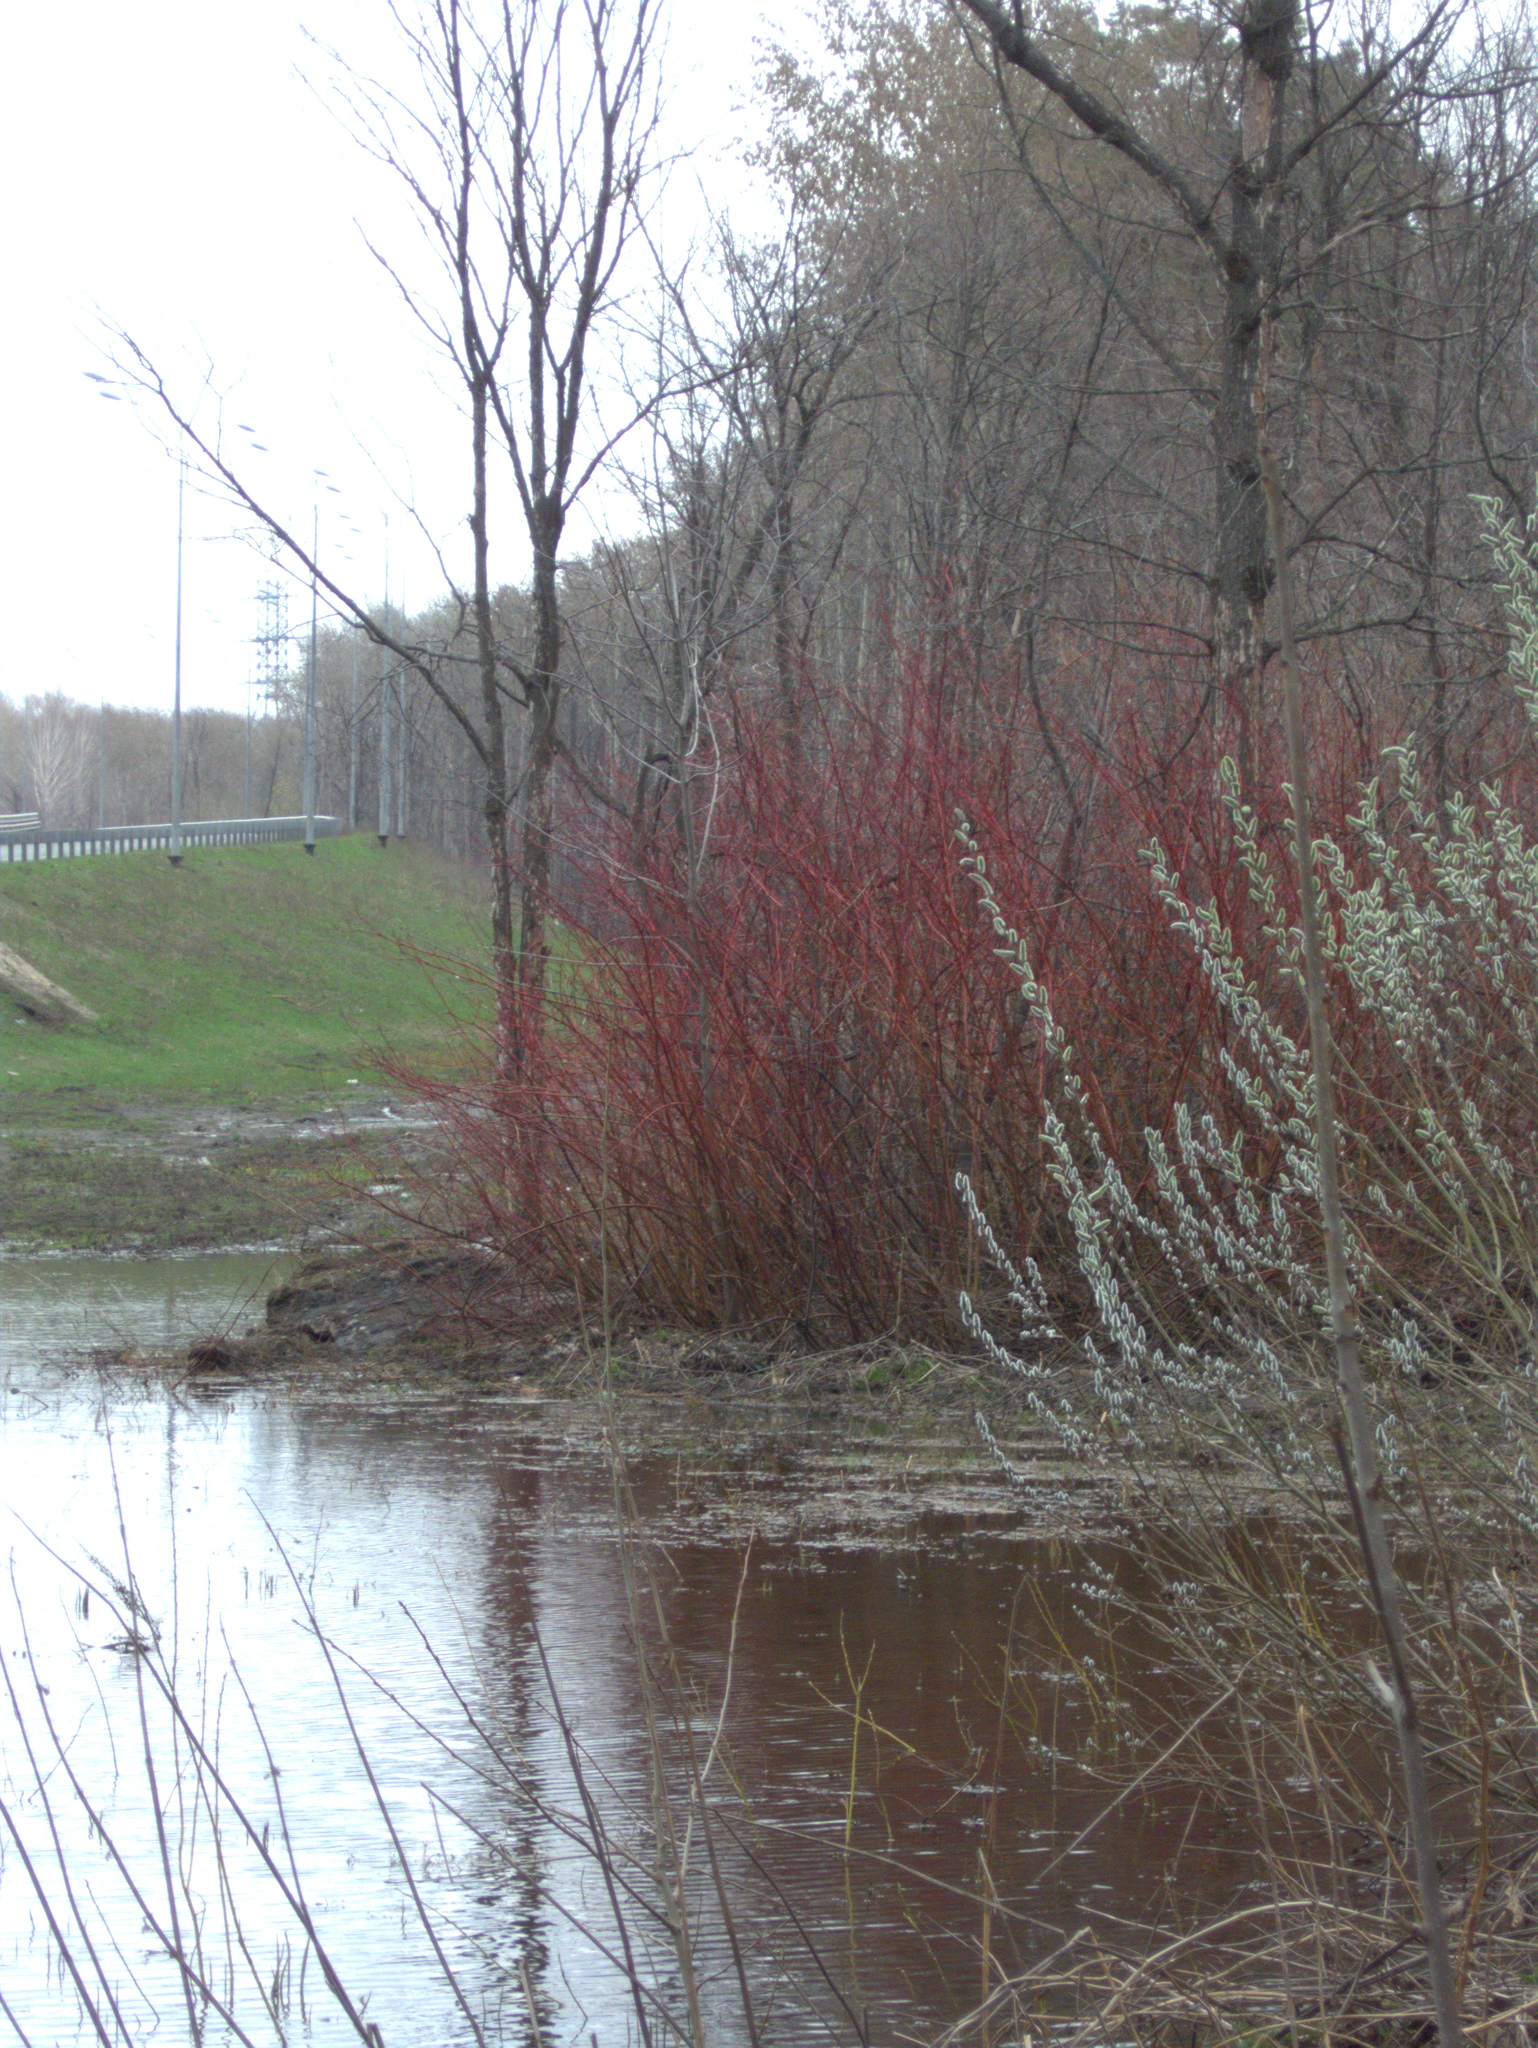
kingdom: Plantae
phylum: Tracheophyta
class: Magnoliopsida
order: Cornales
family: Cornaceae
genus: Cornus
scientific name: Cornus alba
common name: White dogwood
